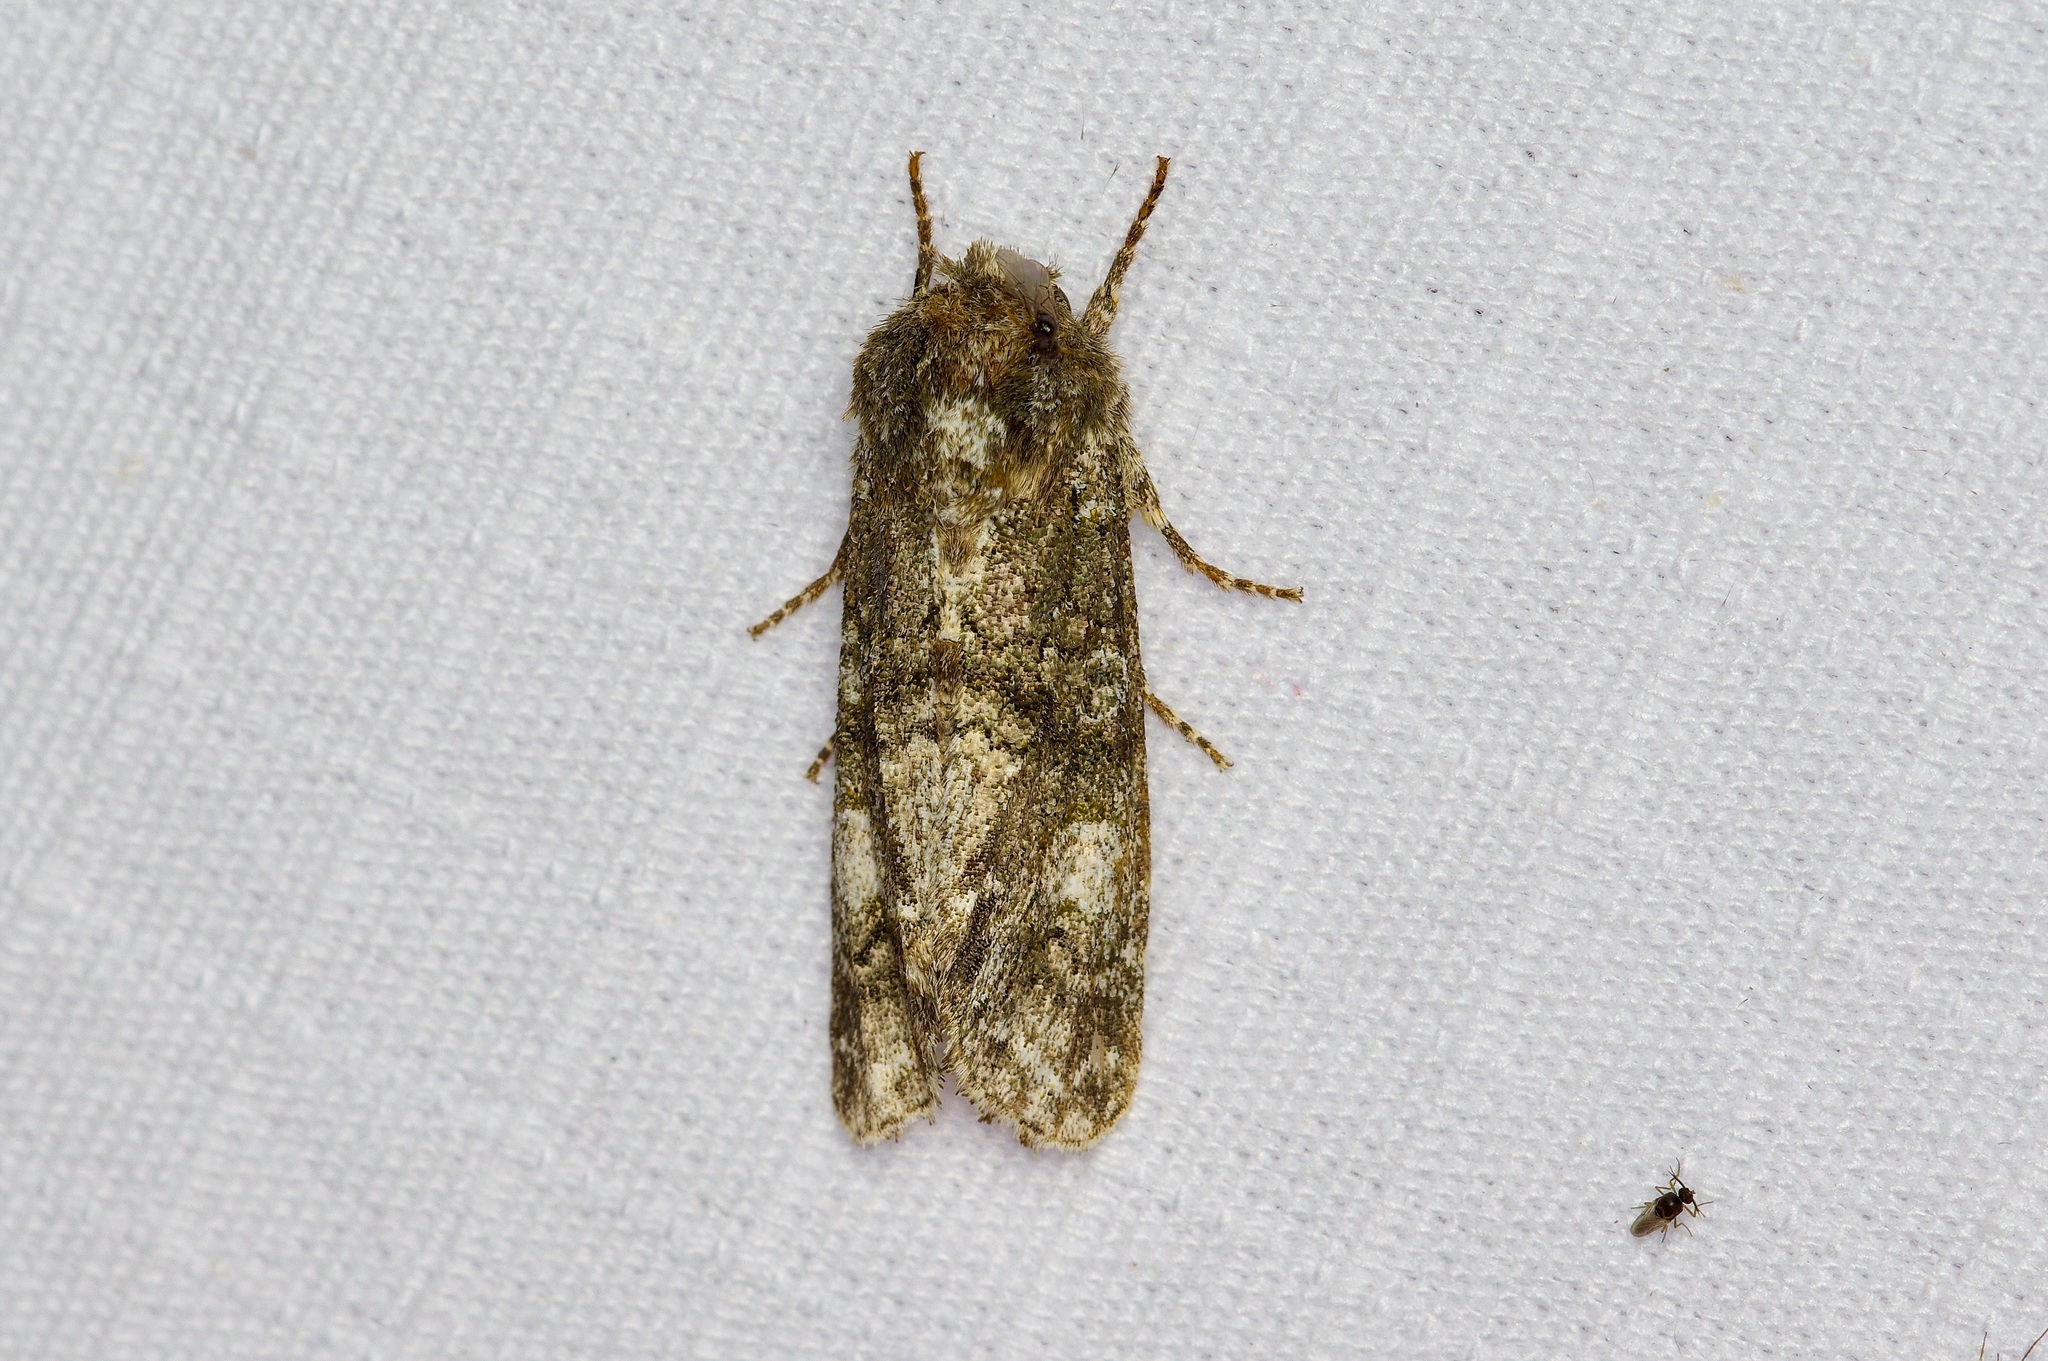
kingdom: Animalia
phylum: Arthropoda
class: Insecta
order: Lepidoptera
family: Noctuidae
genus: Psaphida
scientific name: Psaphida grotei
